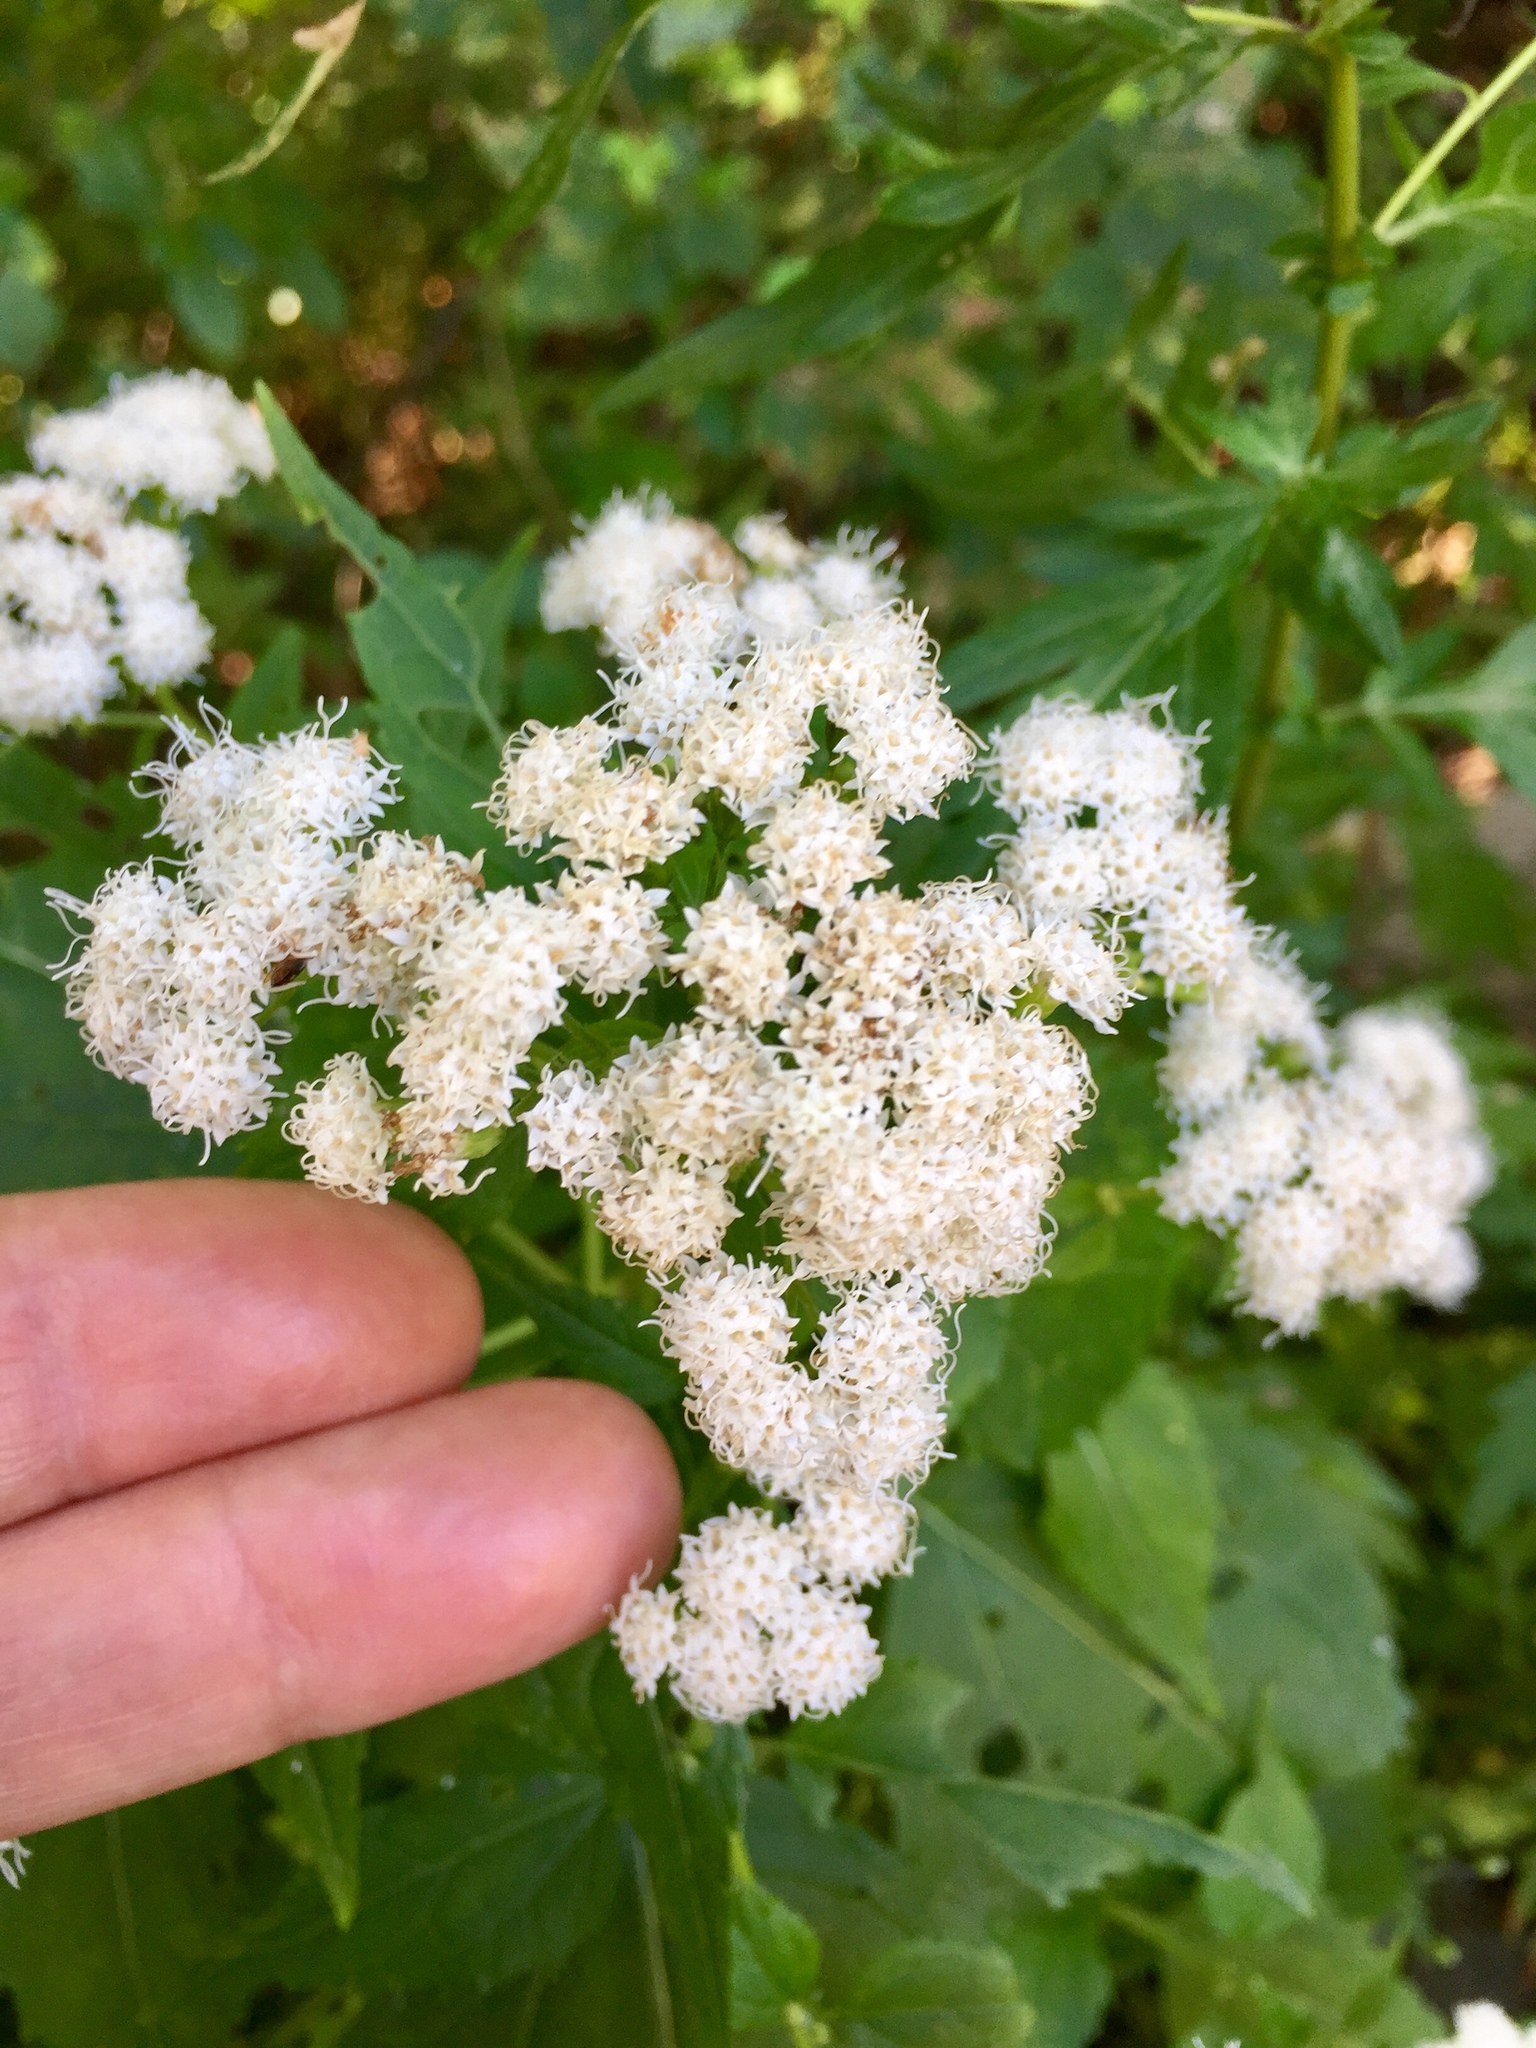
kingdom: Plantae
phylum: Tracheophyta
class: Magnoliopsida
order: Asterales
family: Asteraceae
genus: Ageratina
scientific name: Ageratina altissima
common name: White snakeroot
